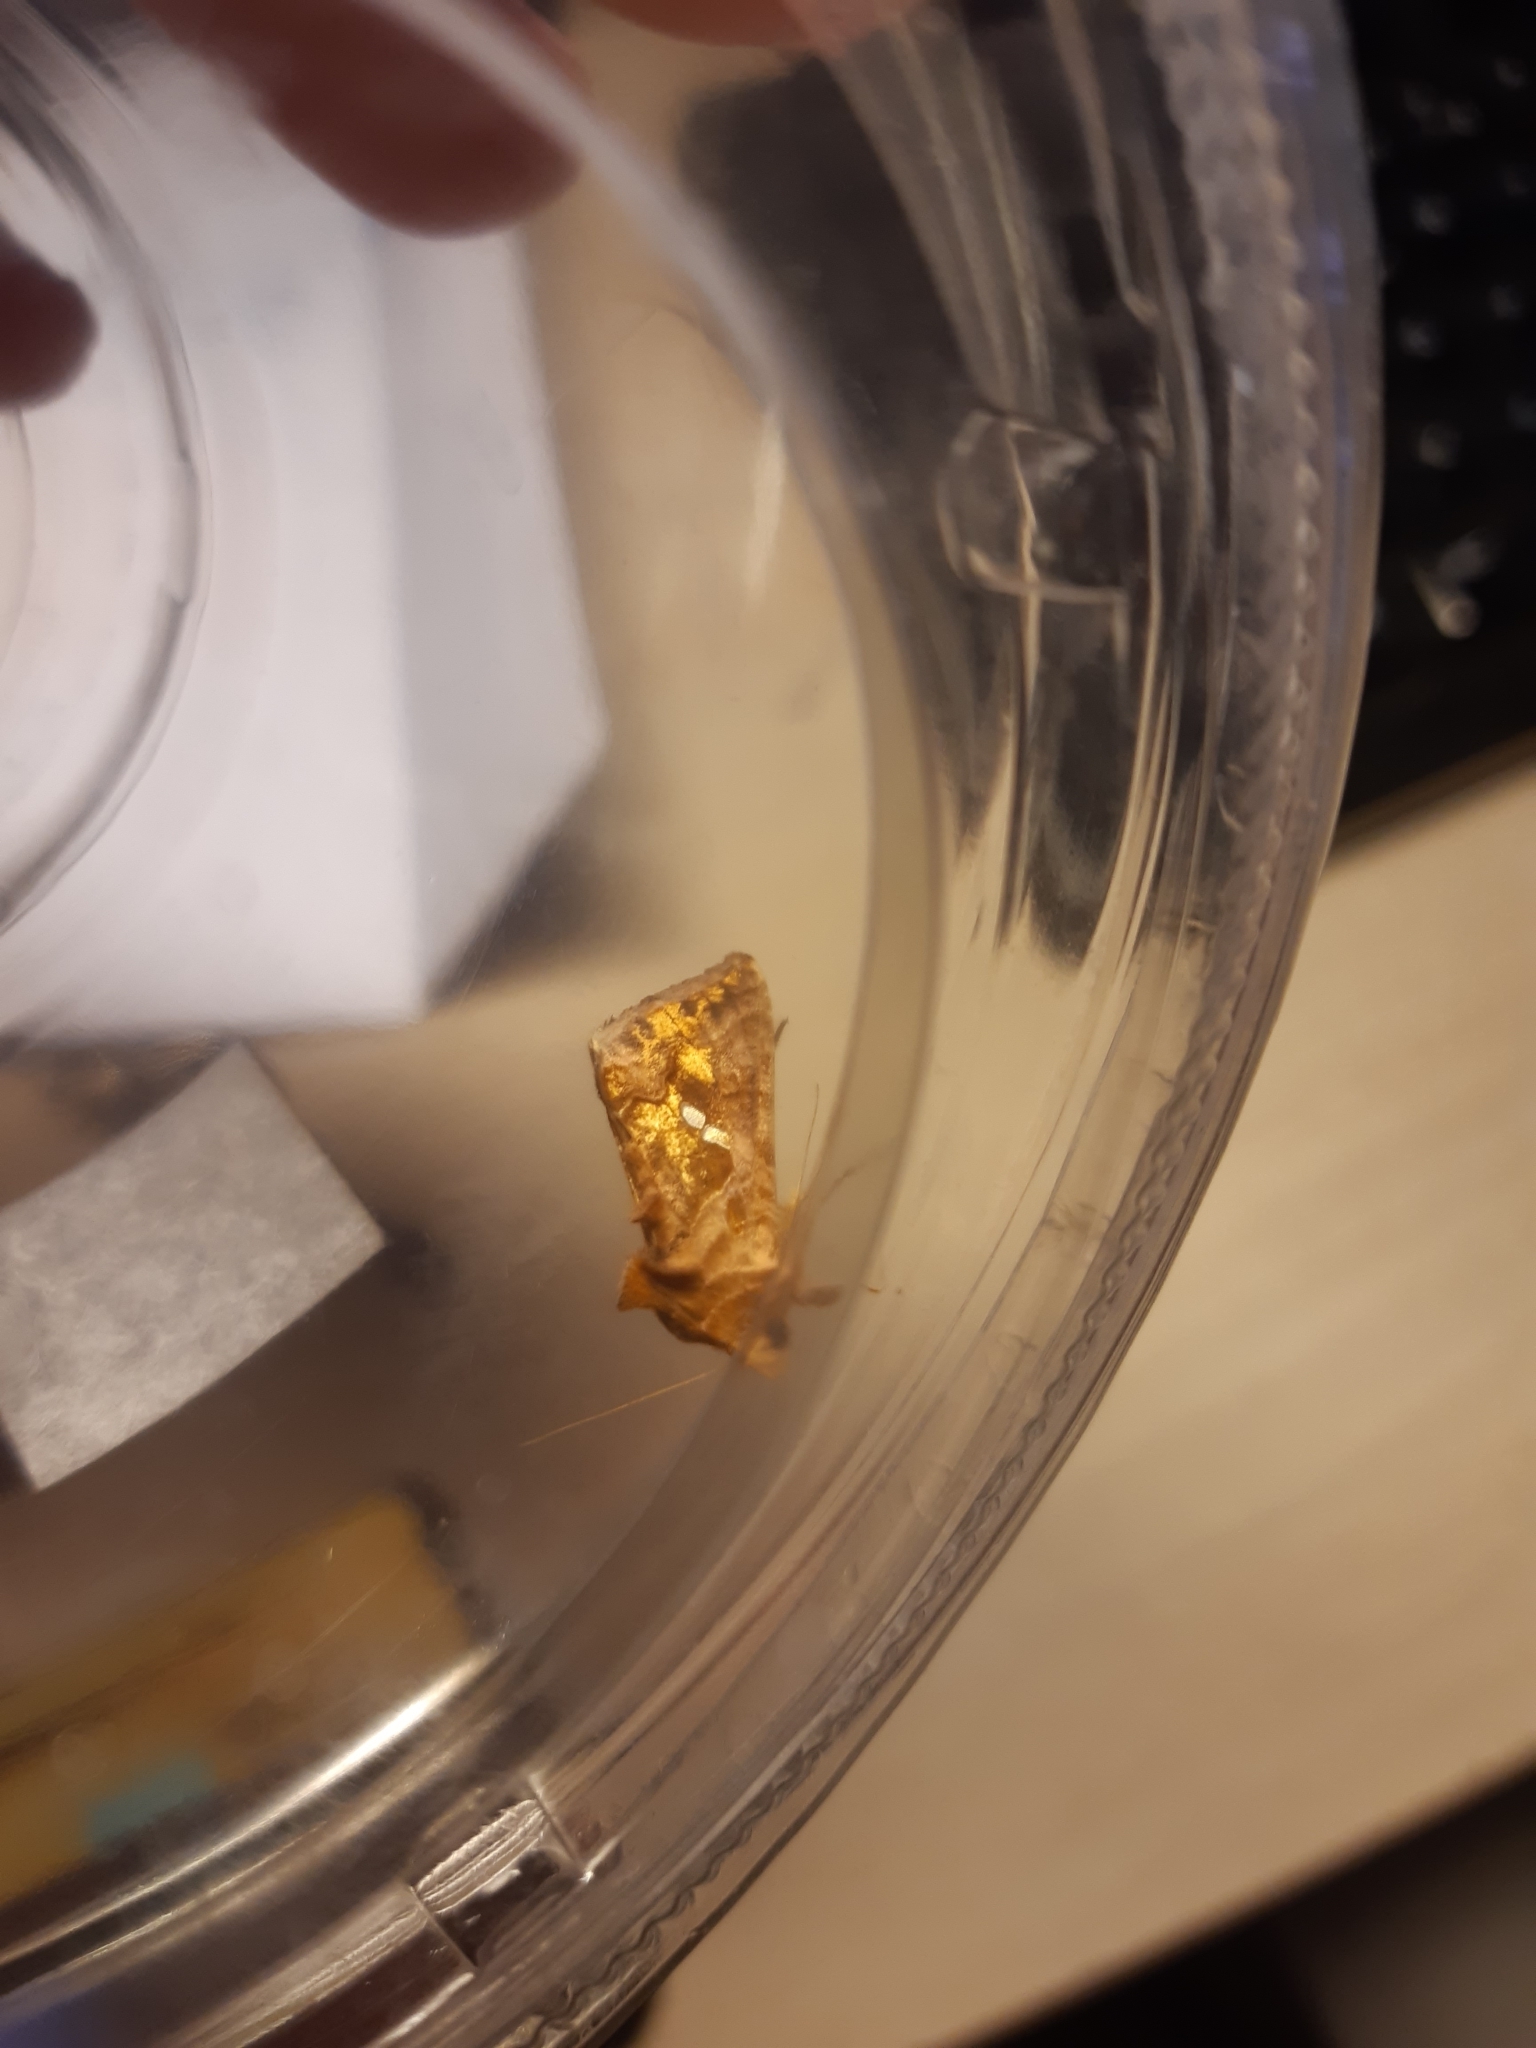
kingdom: Animalia
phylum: Arthropoda
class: Insecta
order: Lepidoptera
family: Noctuidae
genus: Chrysodeixis
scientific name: Chrysodeixis chalcites
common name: Golden twin-spot
